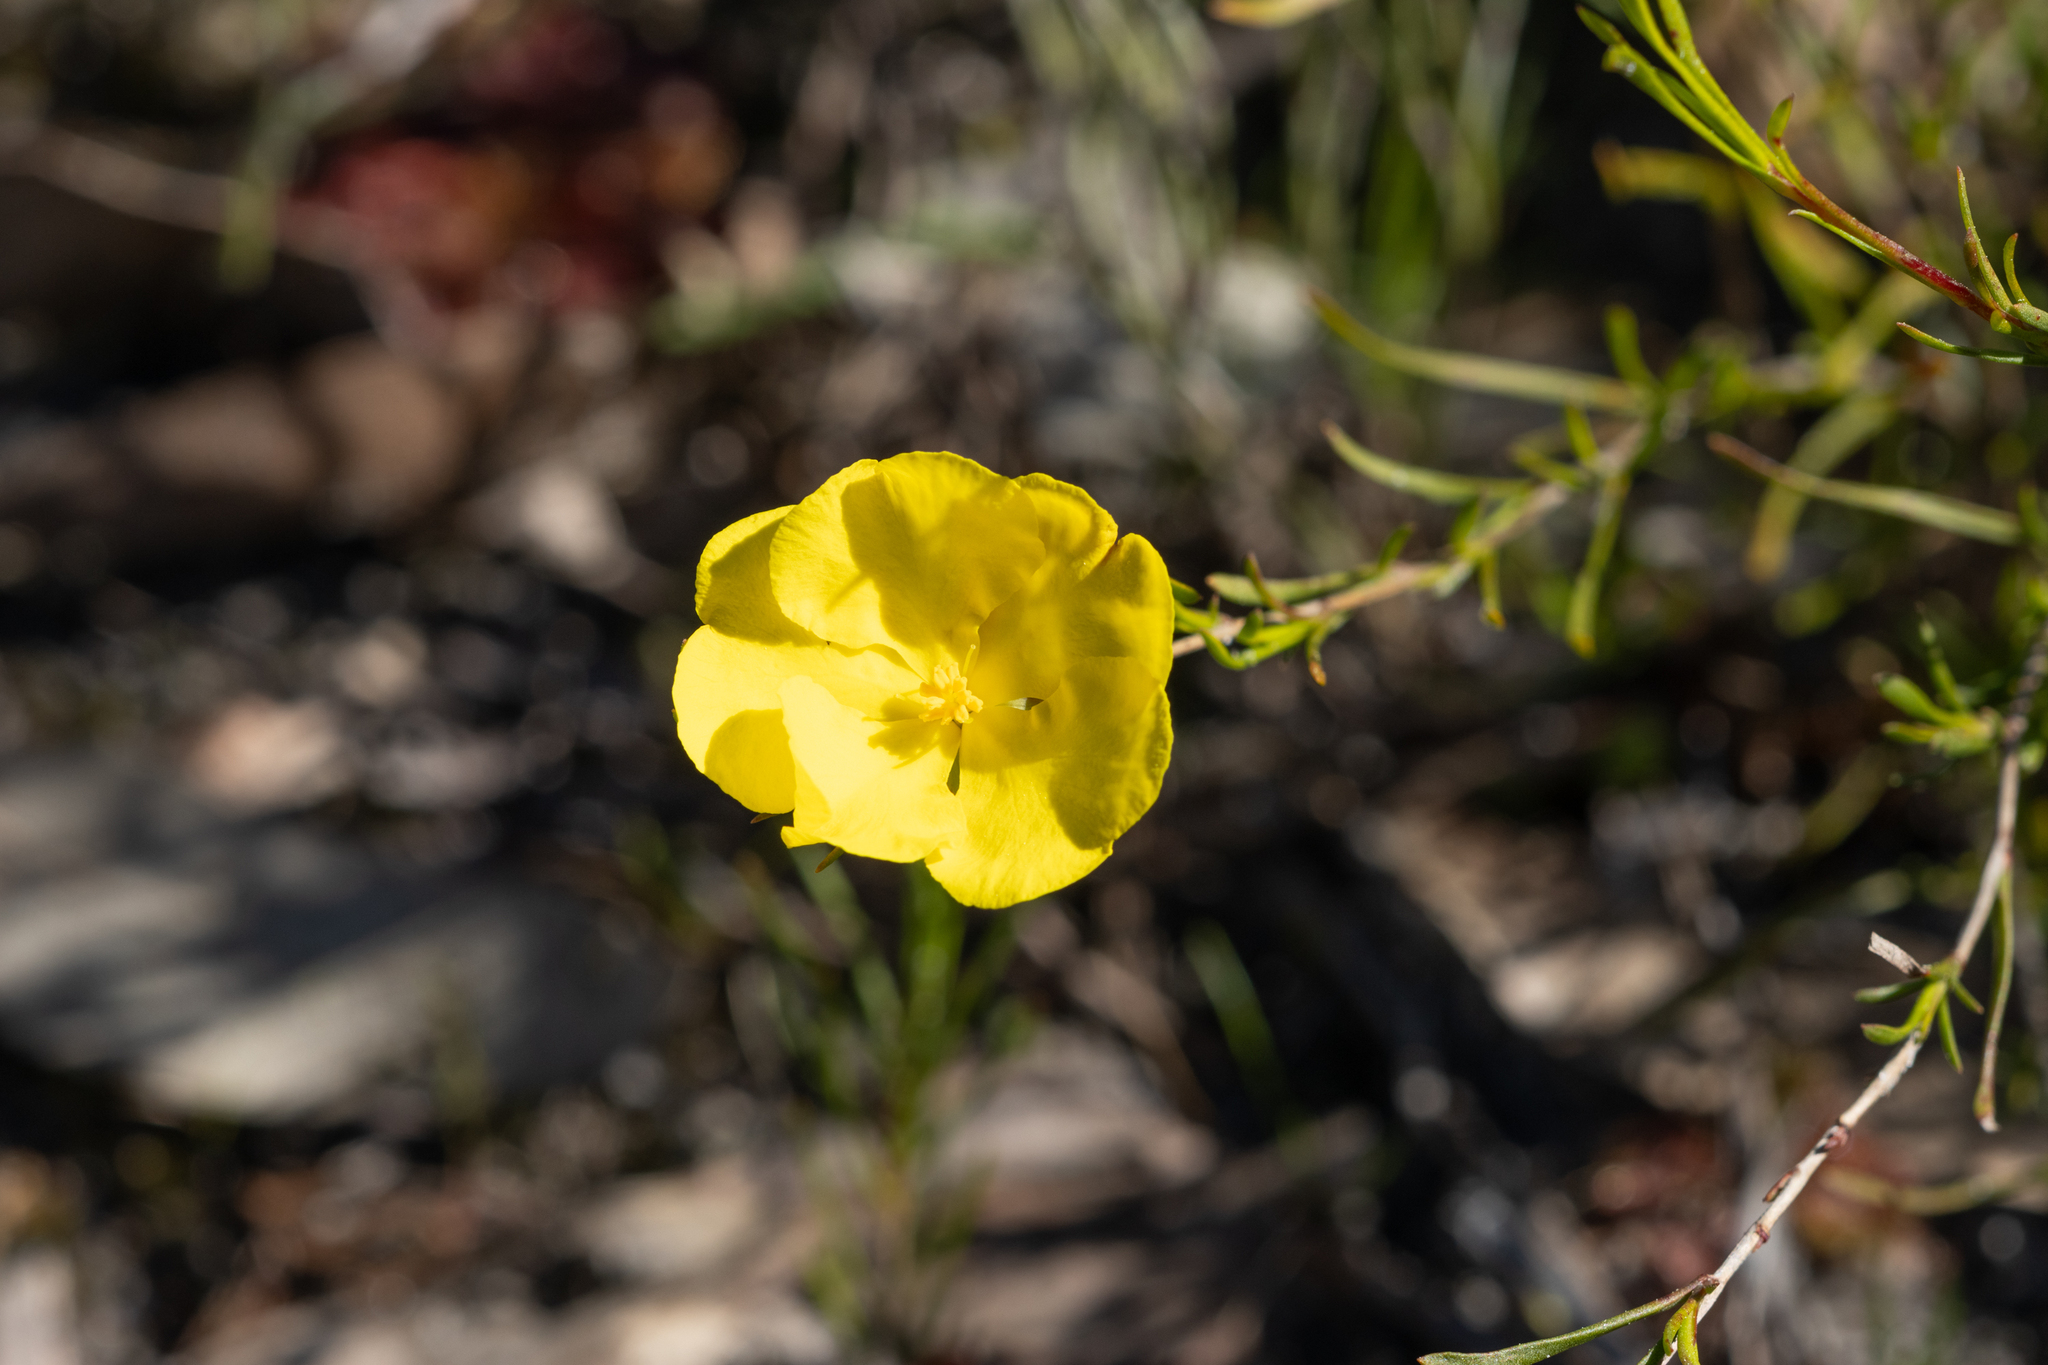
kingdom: Plantae
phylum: Tracheophyta
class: Magnoliopsida
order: Dilleniales
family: Dilleniaceae
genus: Hibbertia
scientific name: Hibbertia virgata
